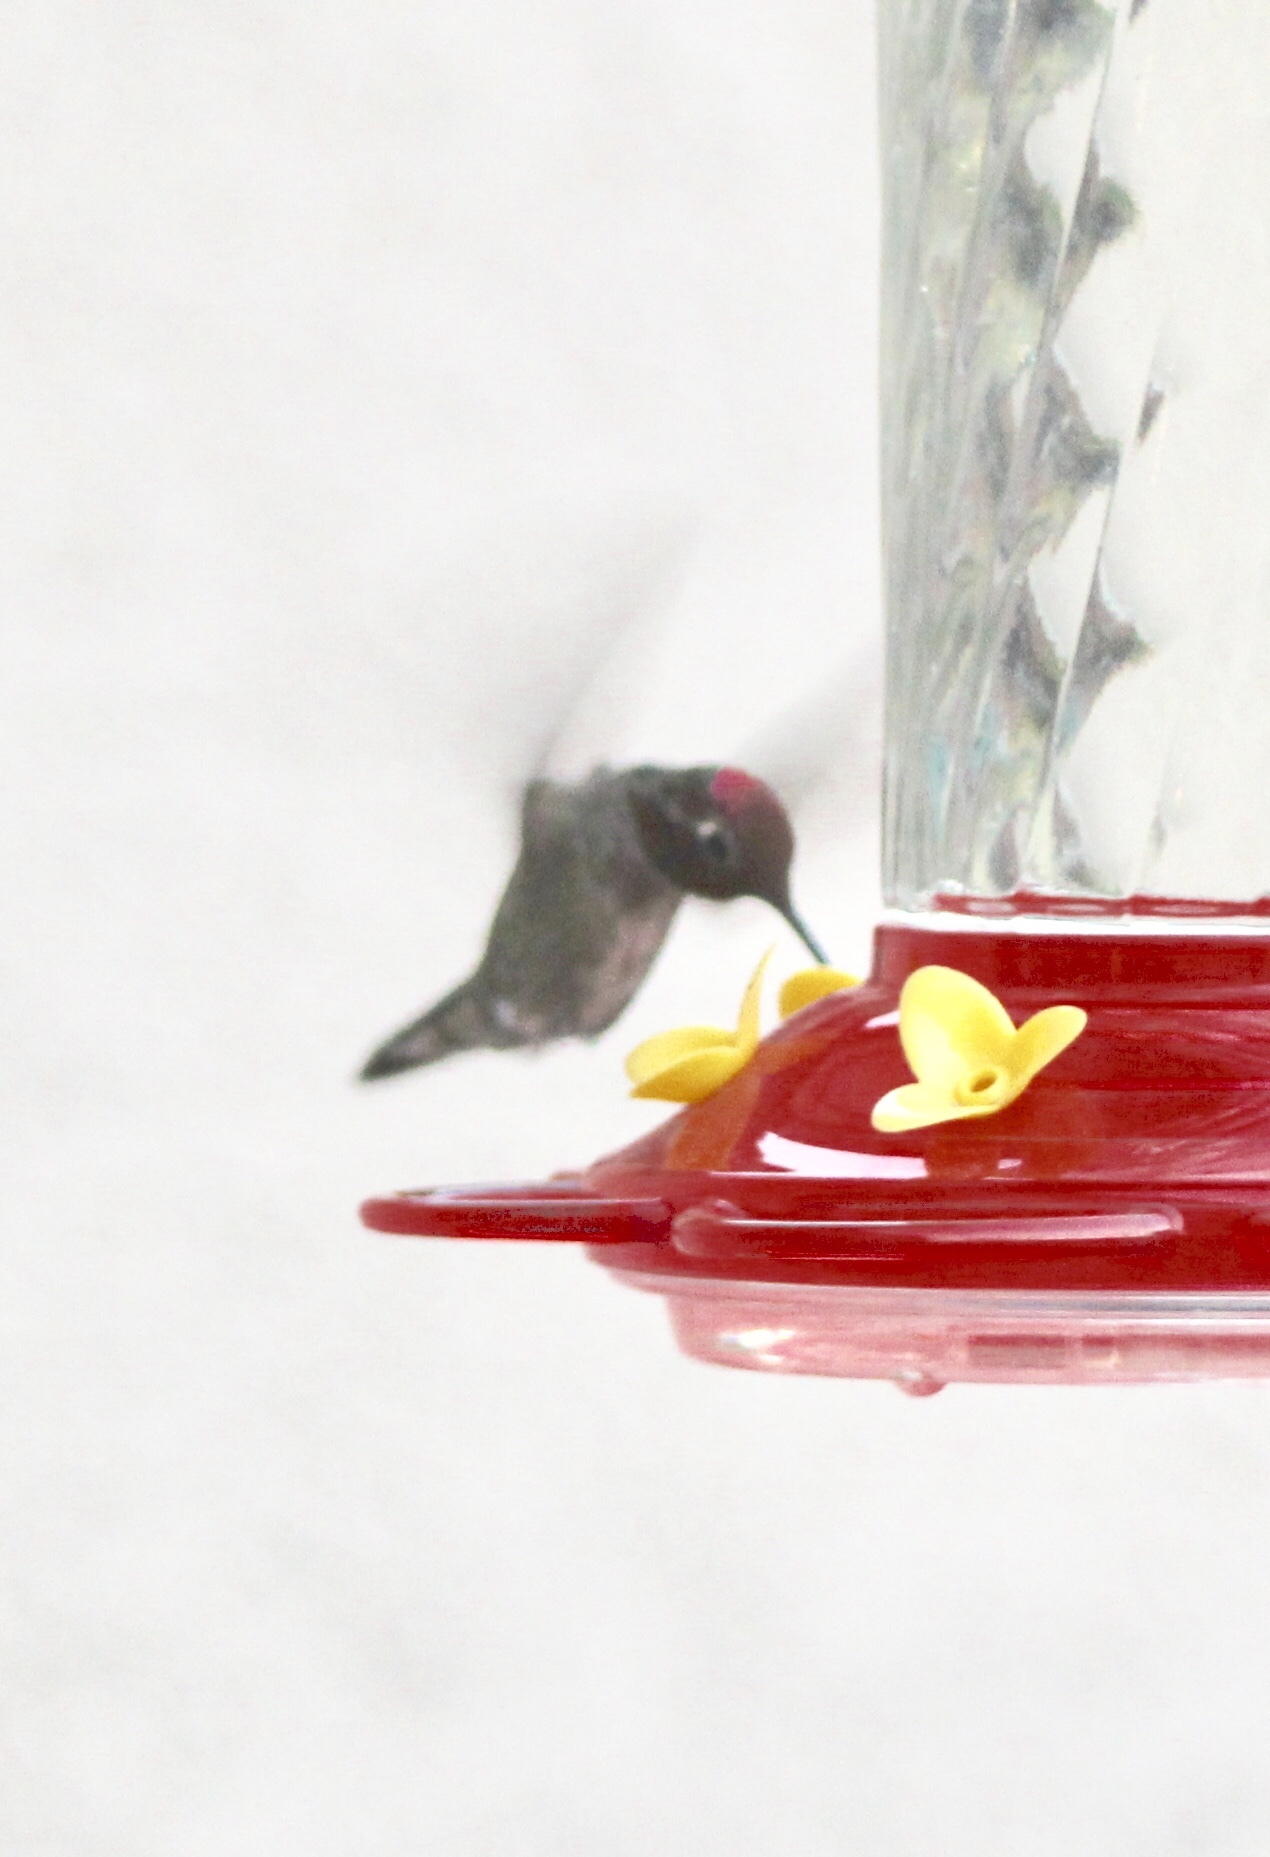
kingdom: Animalia
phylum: Chordata
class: Aves
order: Apodiformes
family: Trochilidae
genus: Calypte
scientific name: Calypte anna
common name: Anna's hummingbird
